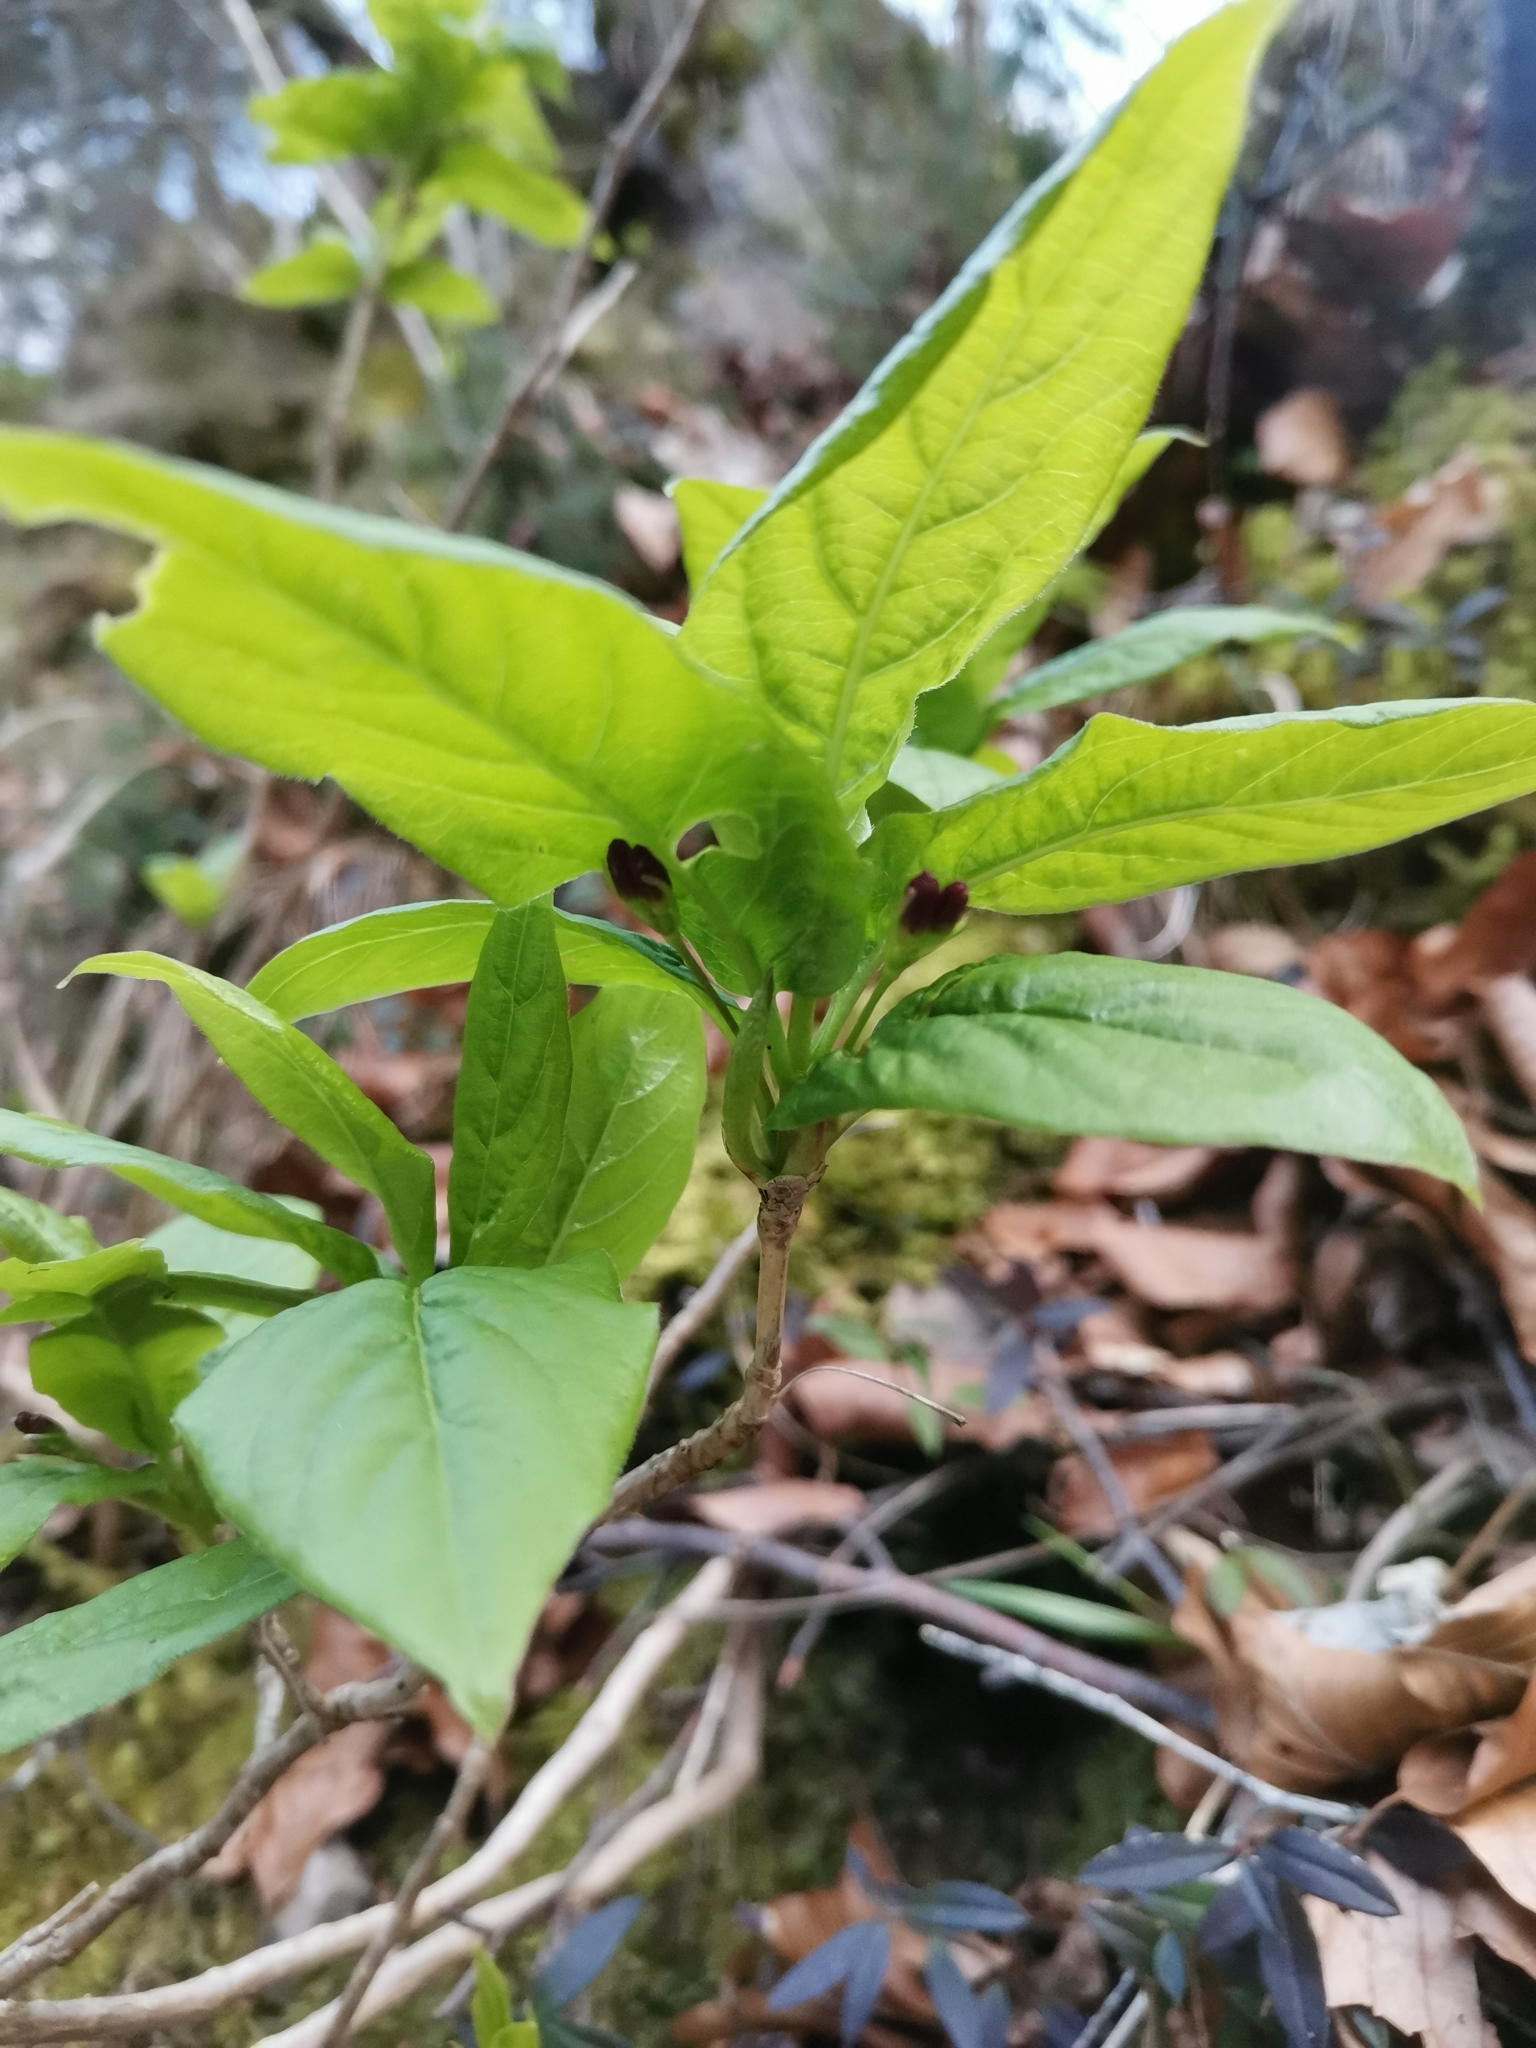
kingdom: Plantae
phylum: Tracheophyta
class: Magnoliopsida
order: Dipsacales
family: Caprifoliaceae
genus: Lonicera
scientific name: Lonicera alpigena
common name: Alpine honeysuckle
